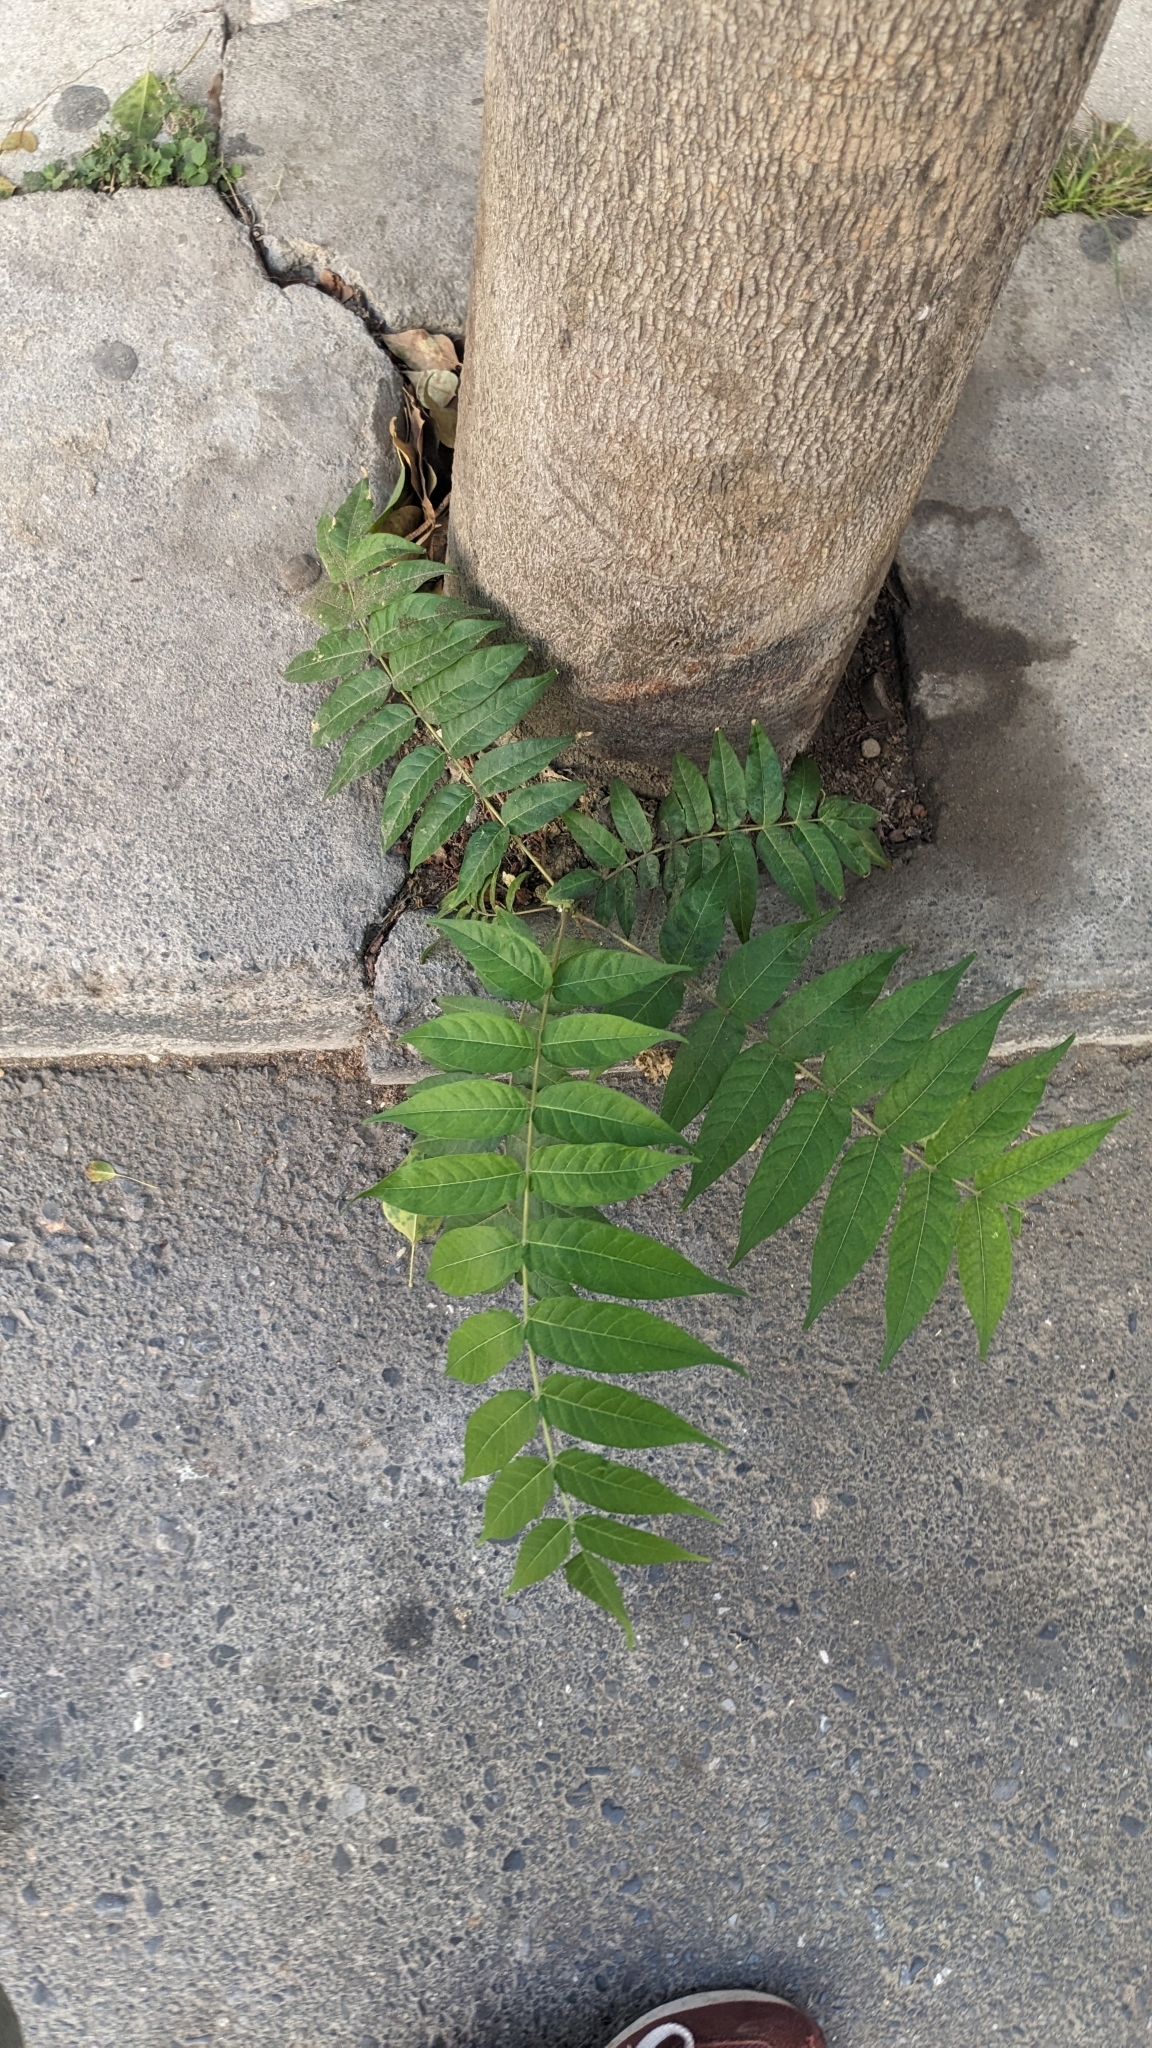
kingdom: Plantae
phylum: Tracheophyta
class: Magnoliopsida
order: Sapindales
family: Simaroubaceae
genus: Ailanthus
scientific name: Ailanthus altissima
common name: Tree-of-heaven
